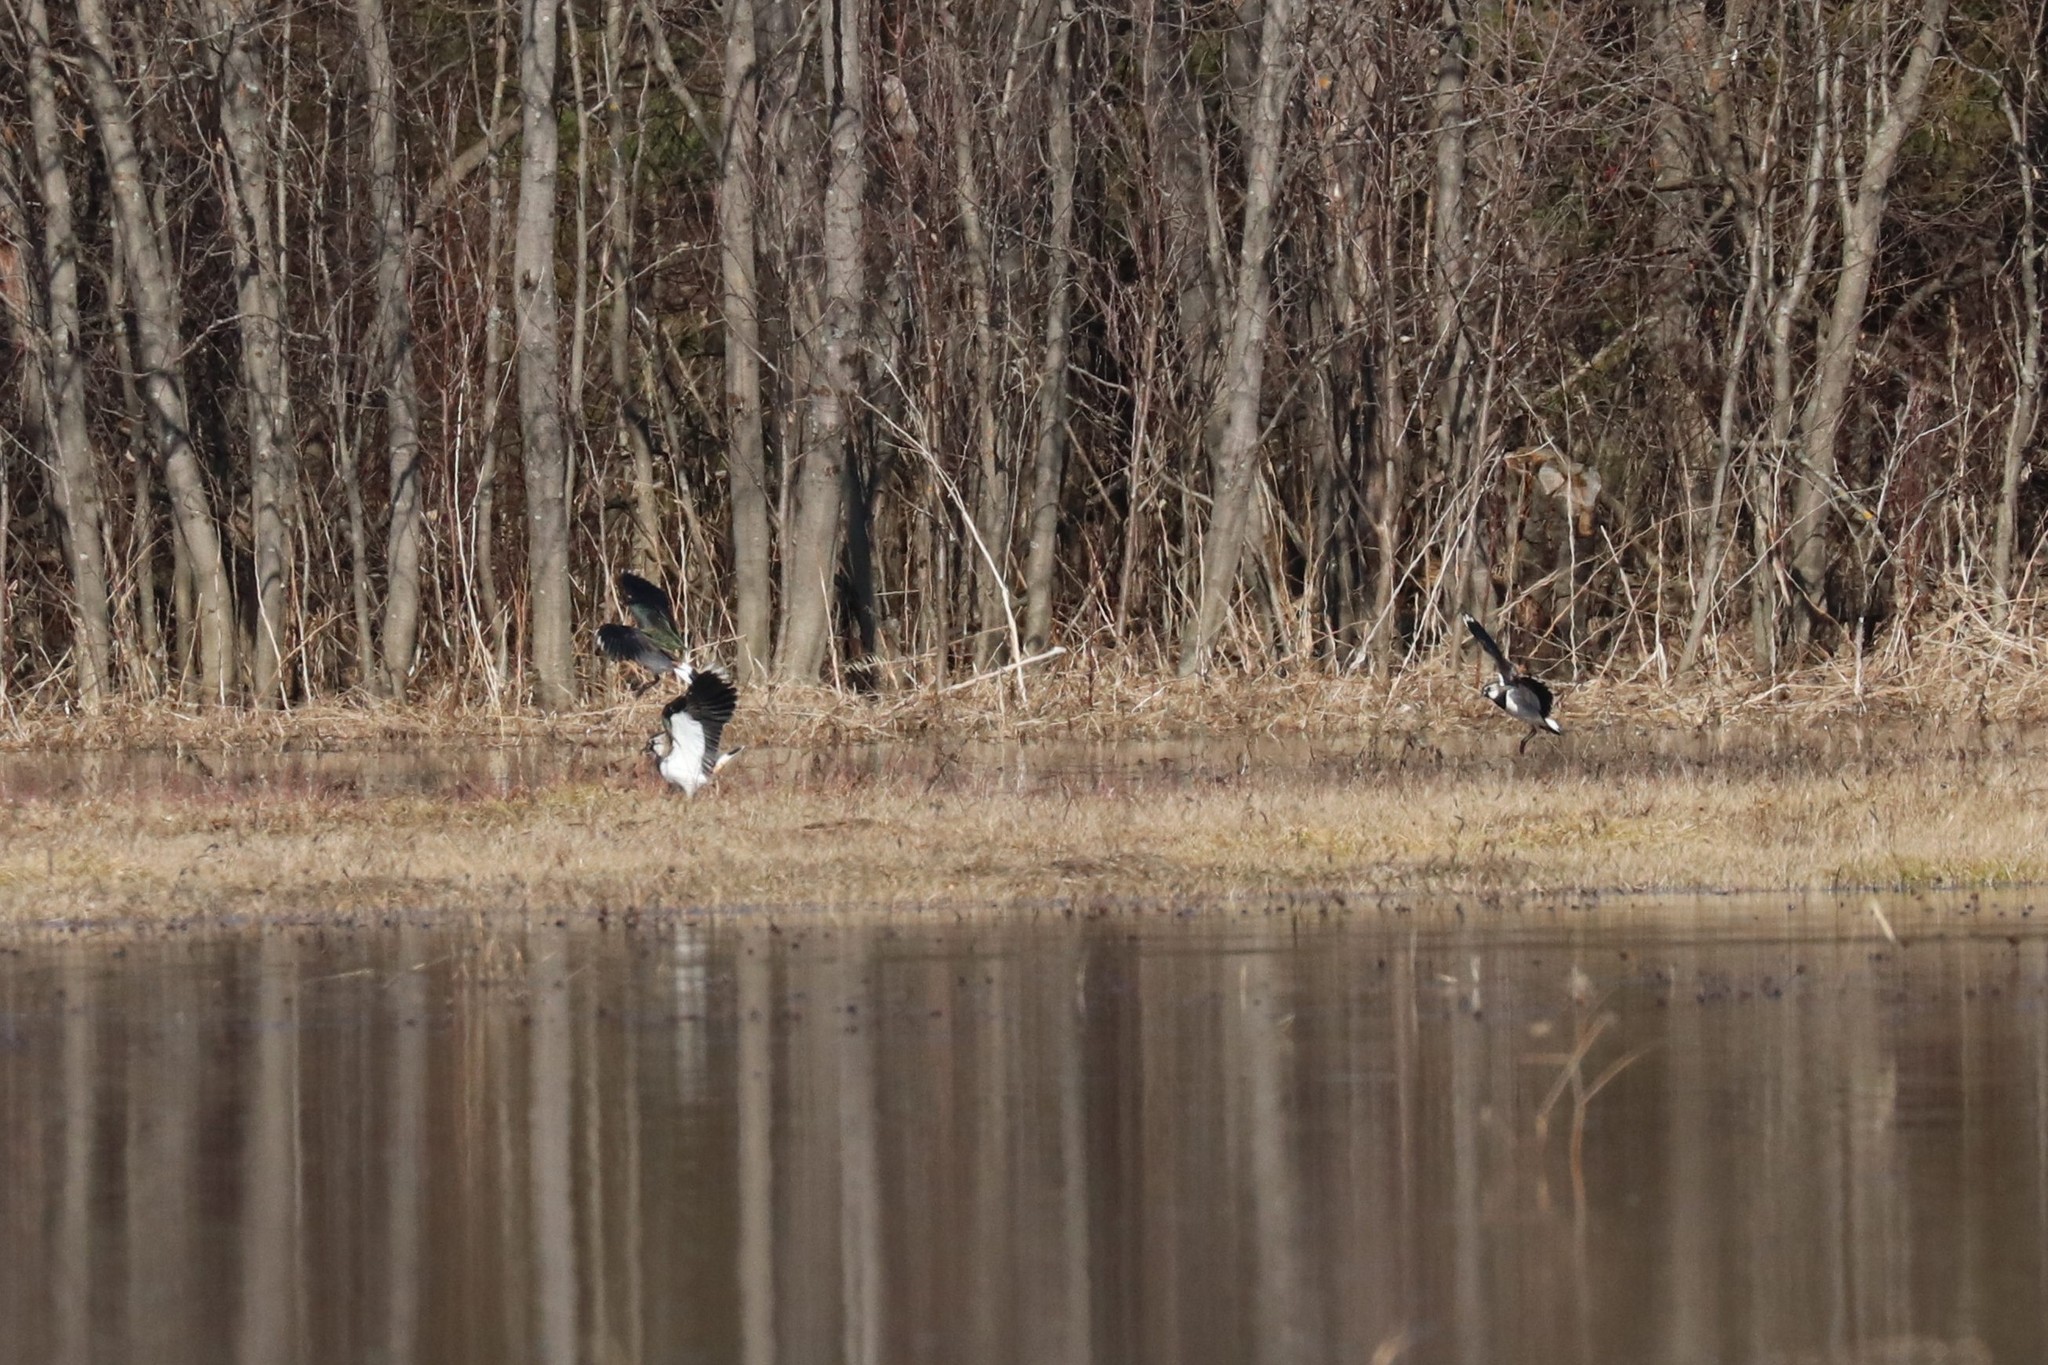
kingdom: Animalia
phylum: Chordata
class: Aves
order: Charadriiformes
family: Charadriidae
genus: Vanellus
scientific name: Vanellus vanellus
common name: Northern lapwing
